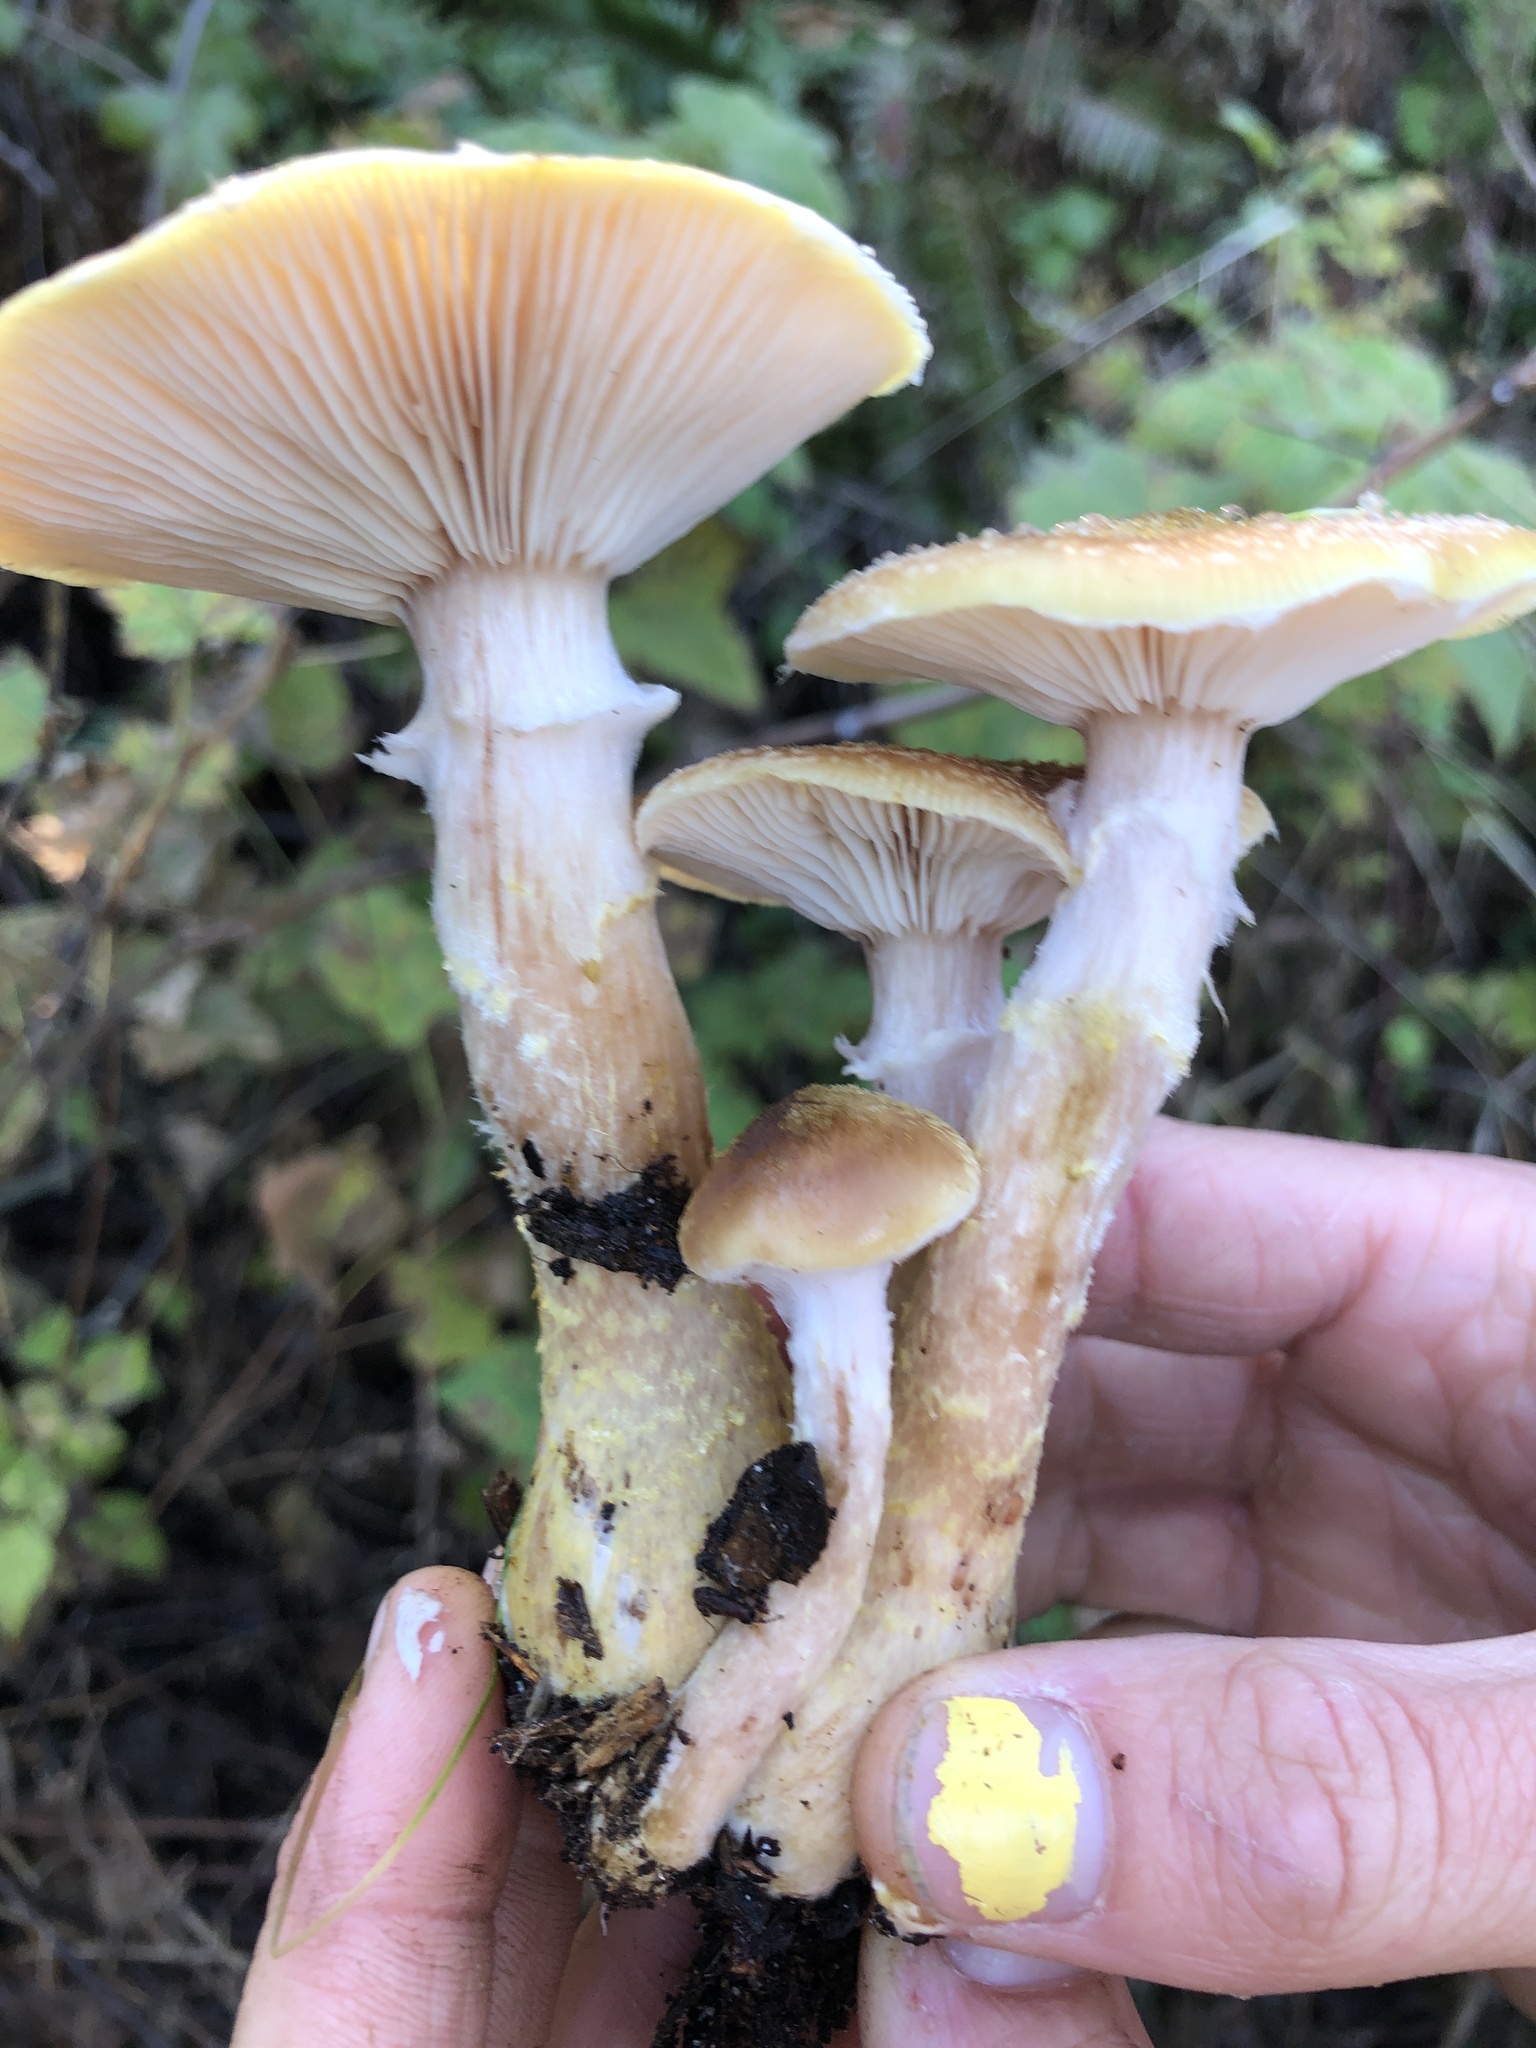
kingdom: Fungi
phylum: Basidiomycota
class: Agaricomycetes
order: Agaricales
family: Physalacriaceae
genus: Armillaria
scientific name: Armillaria sinapina
